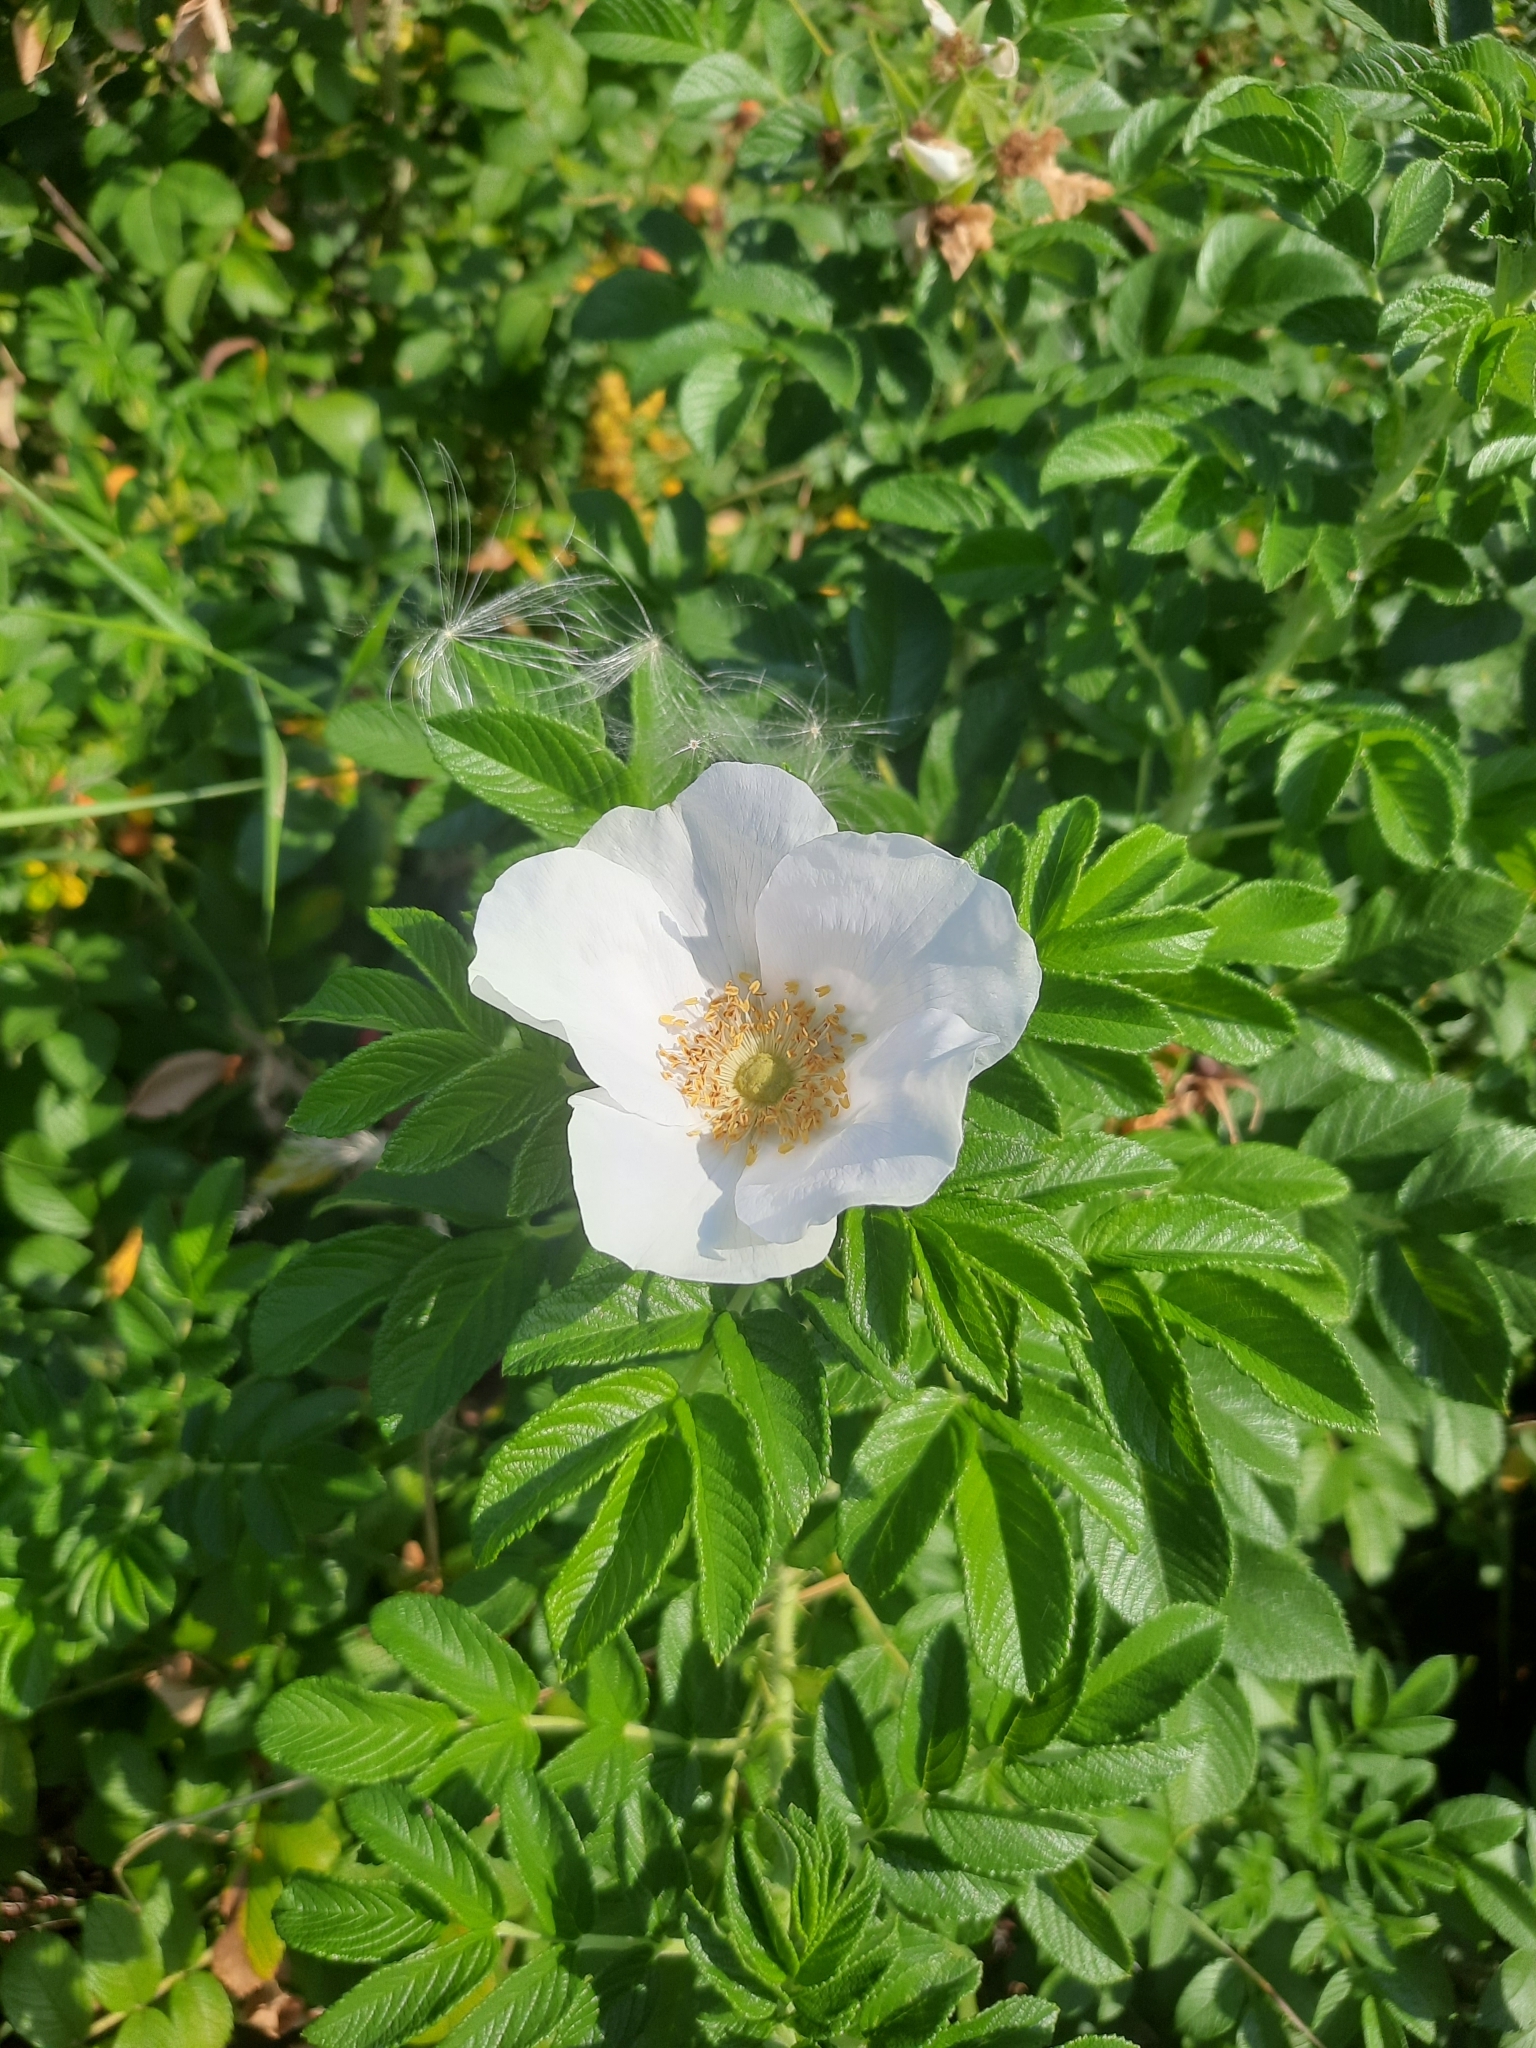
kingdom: Plantae
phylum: Tracheophyta
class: Magnoliopsida
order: Rosales
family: Rosaceae
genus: Rosa
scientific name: Rosa rugosa
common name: Japanese rose
